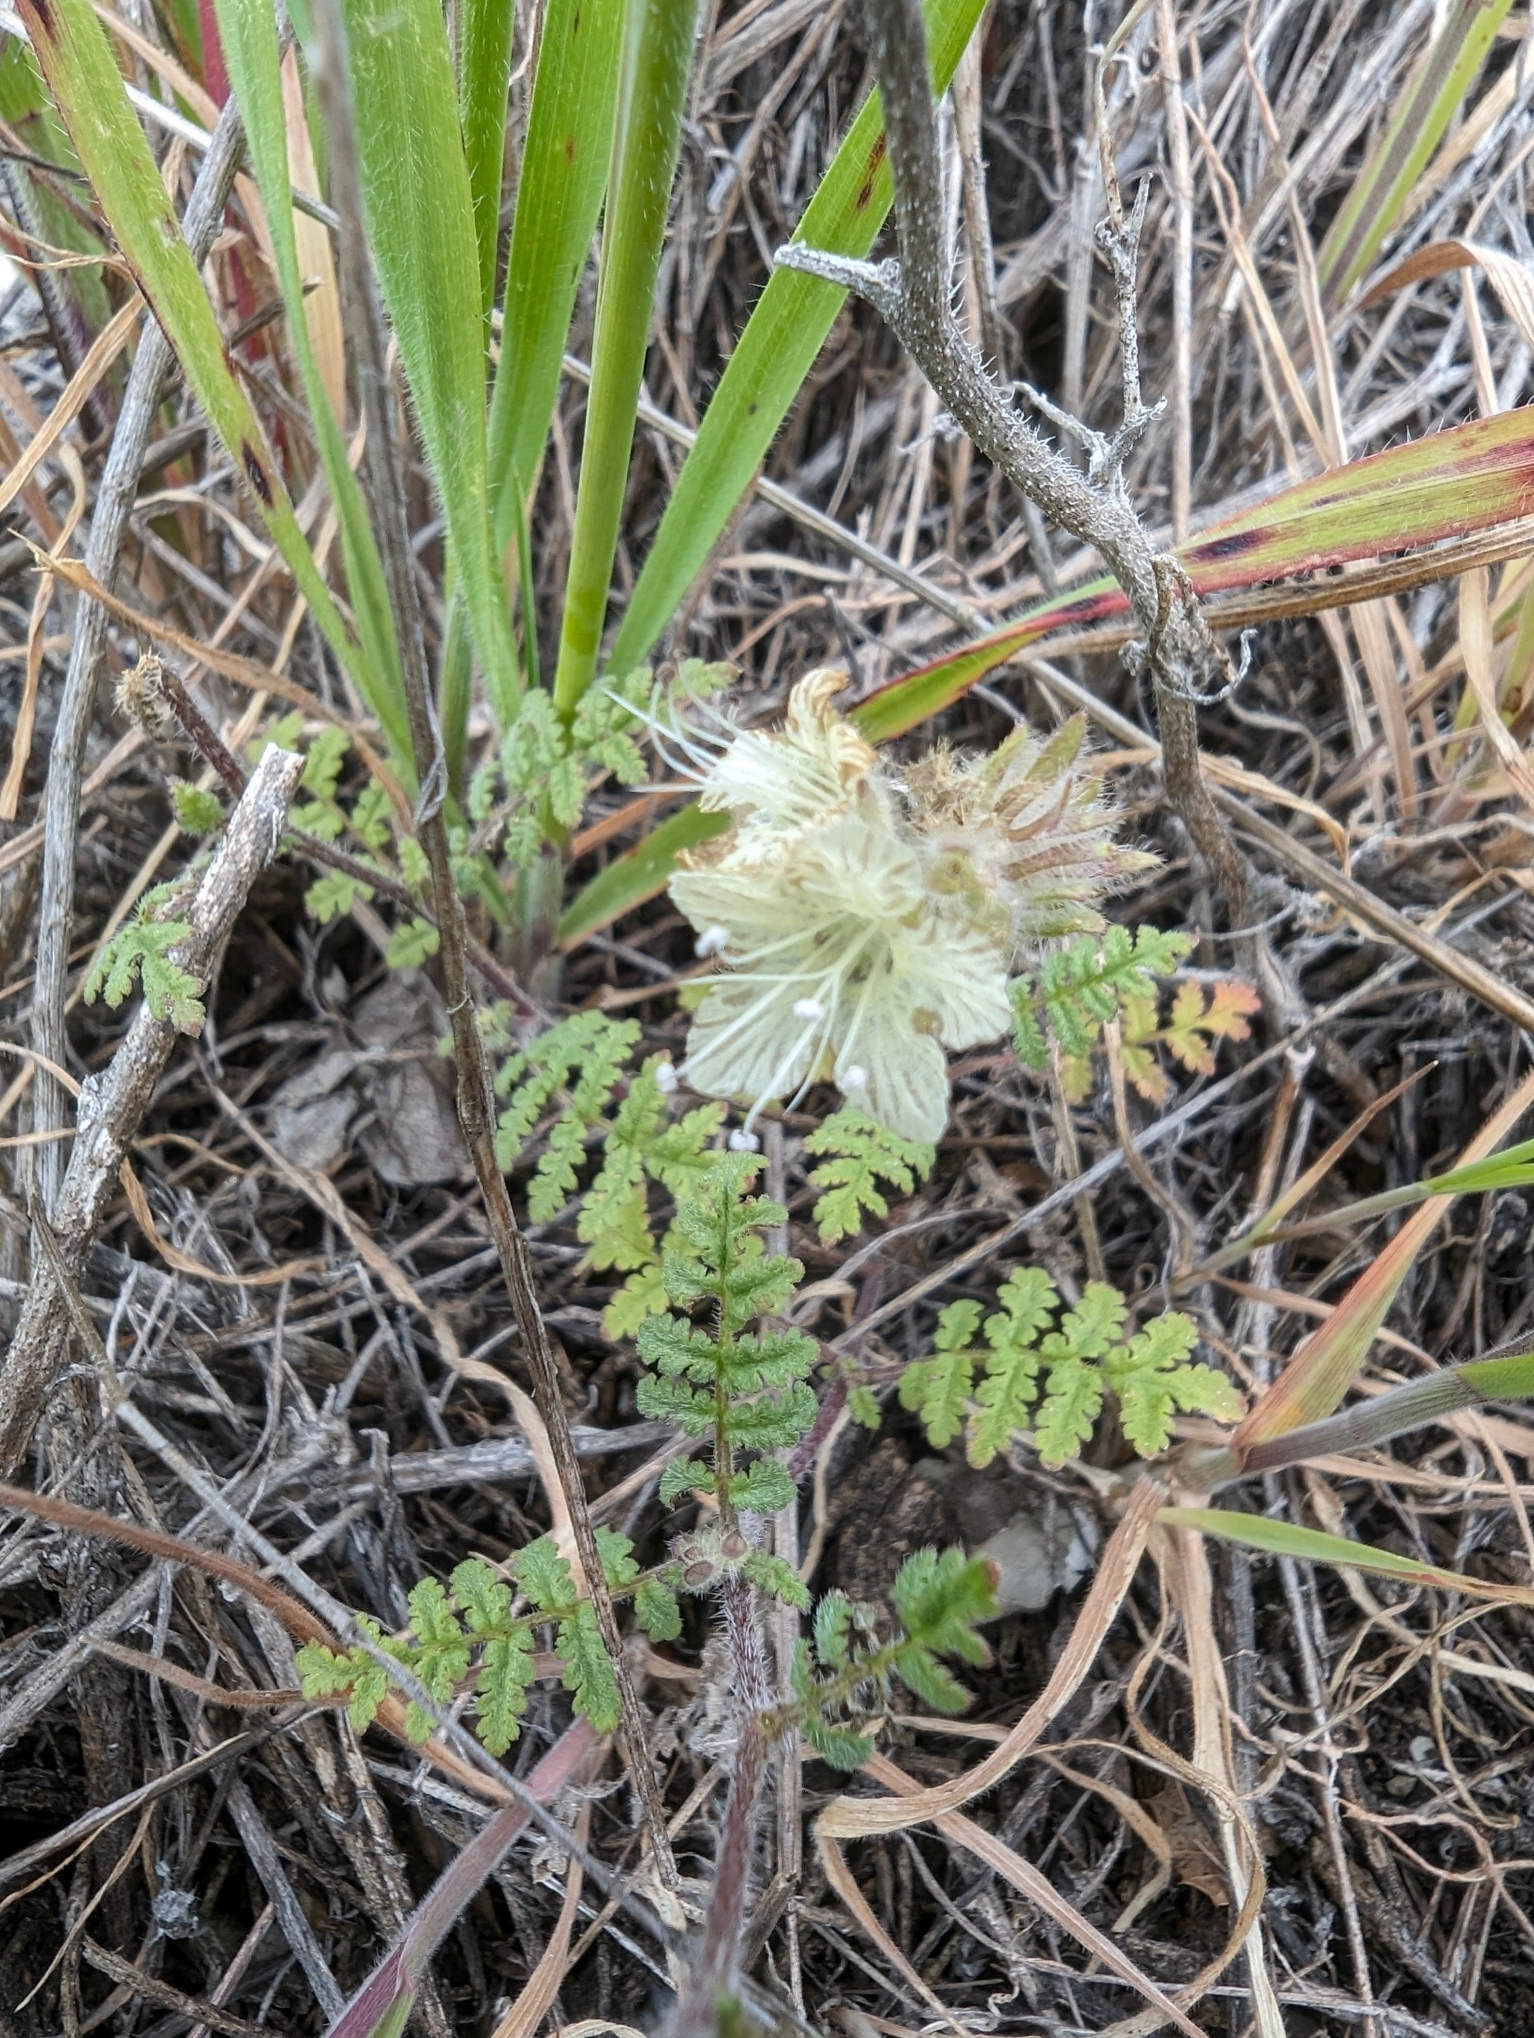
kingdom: Plantae
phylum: Tracheophyta
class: Magnoliopsida
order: Boraginales
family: Hydrophyllaceae
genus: Phacelia
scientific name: Phacelia distans
